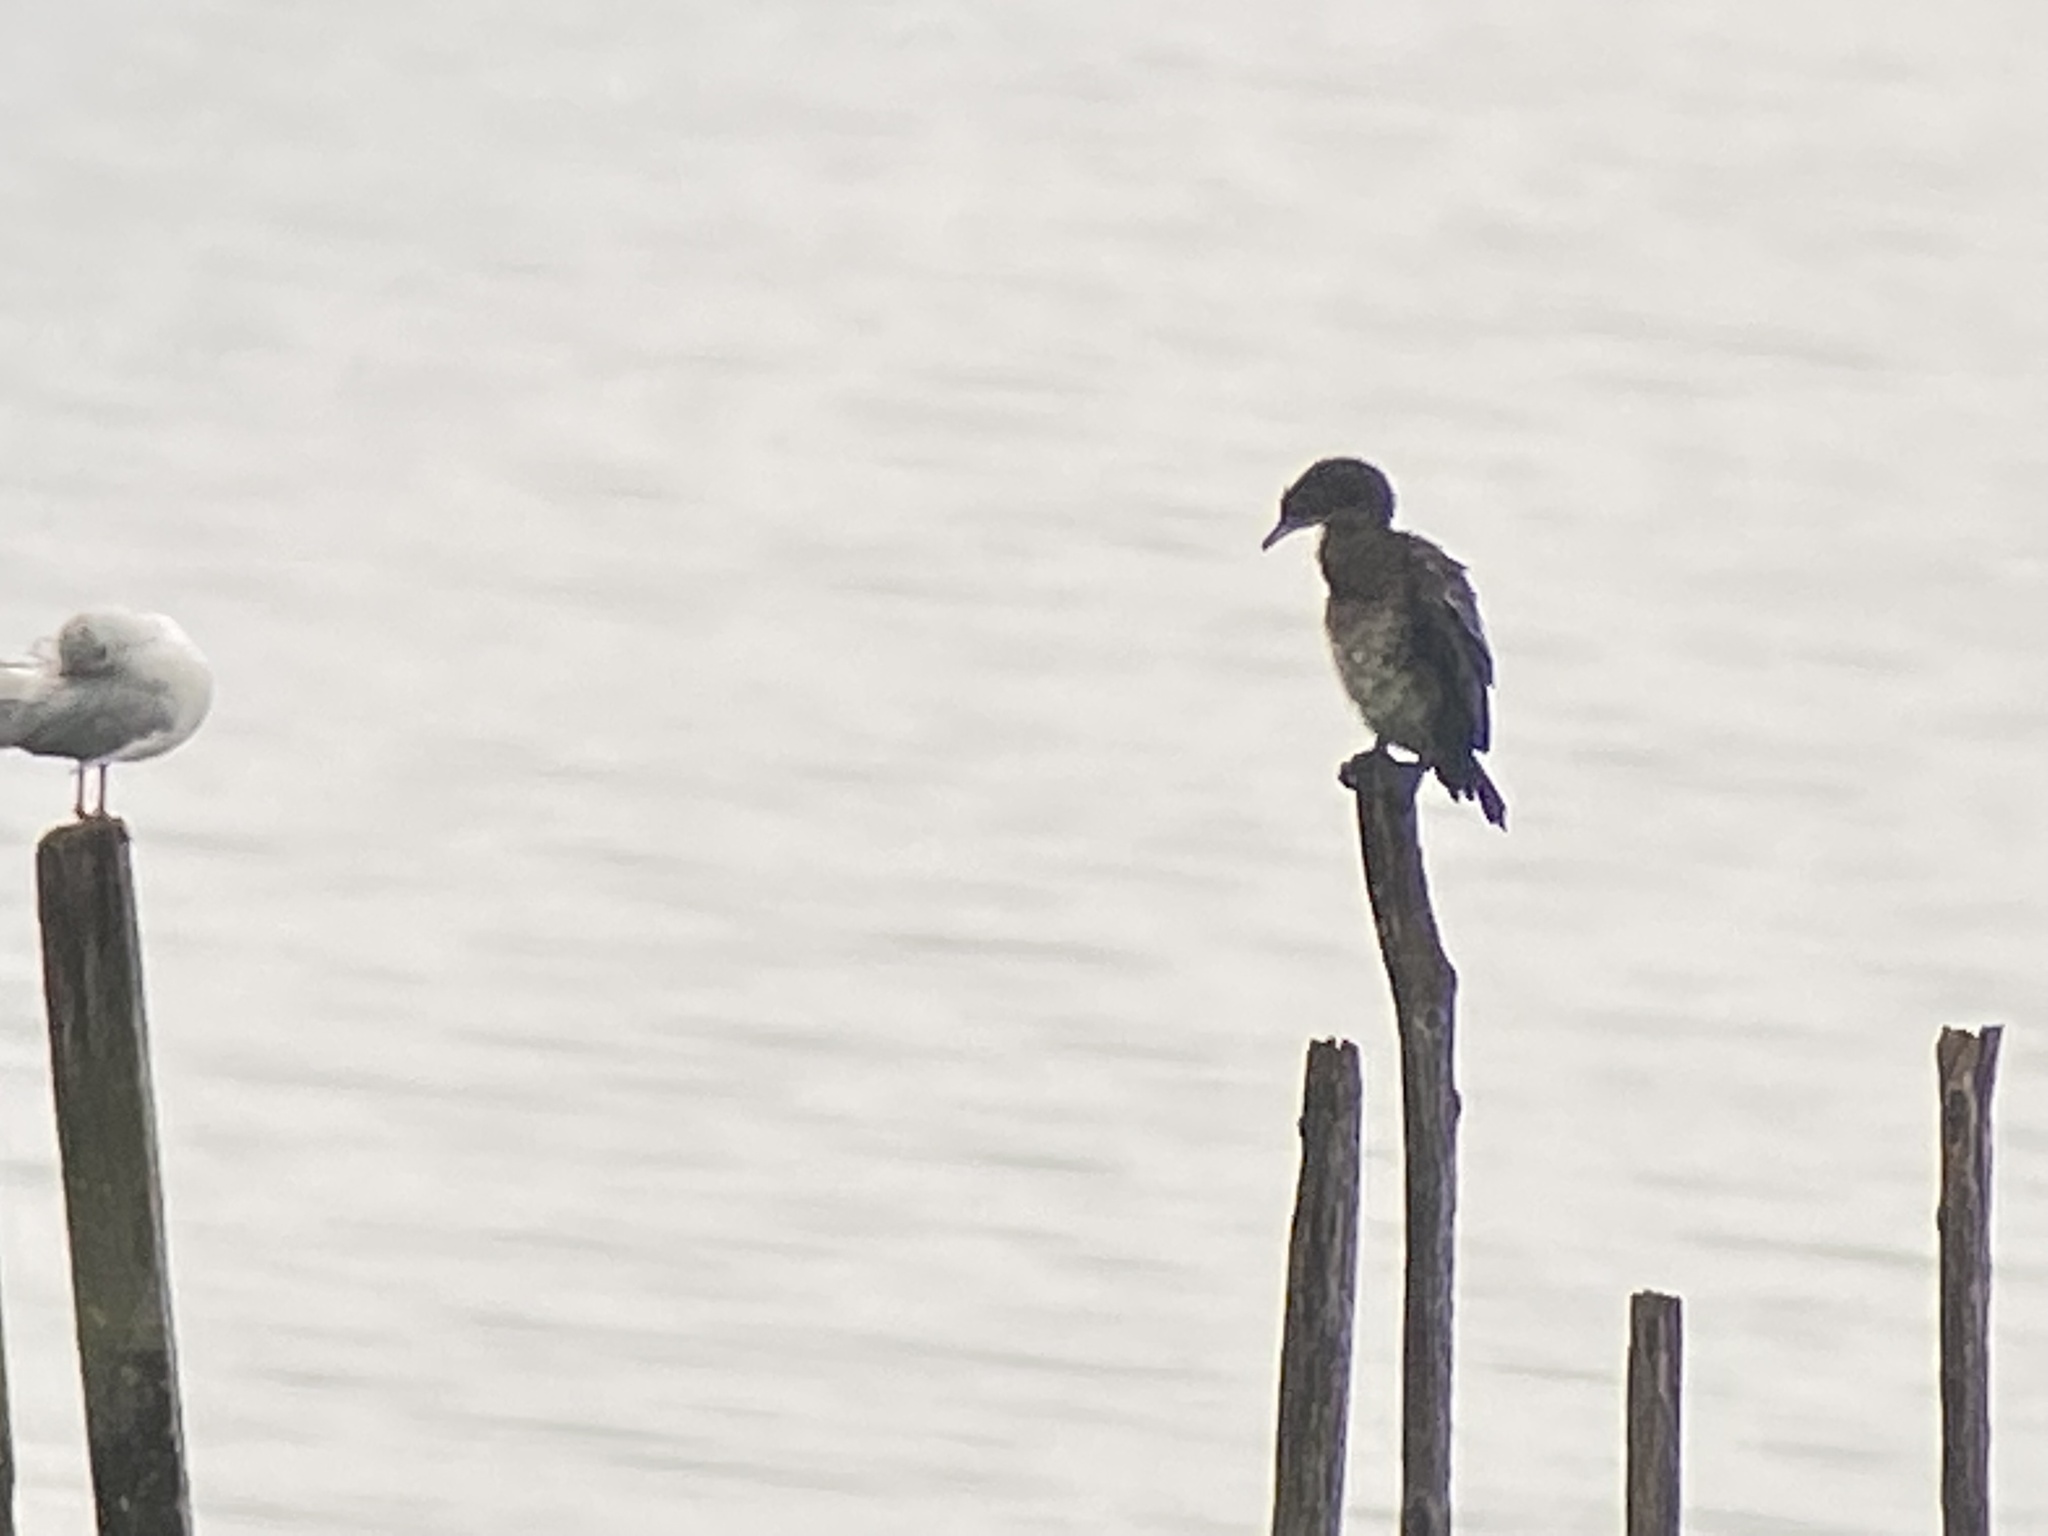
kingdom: Animalia
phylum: Chordata
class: Aves
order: Suliformes
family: Phalacrocoracidae
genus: Microcarbo
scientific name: Microcarbo pygmaeus
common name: Pygmy cormorant
